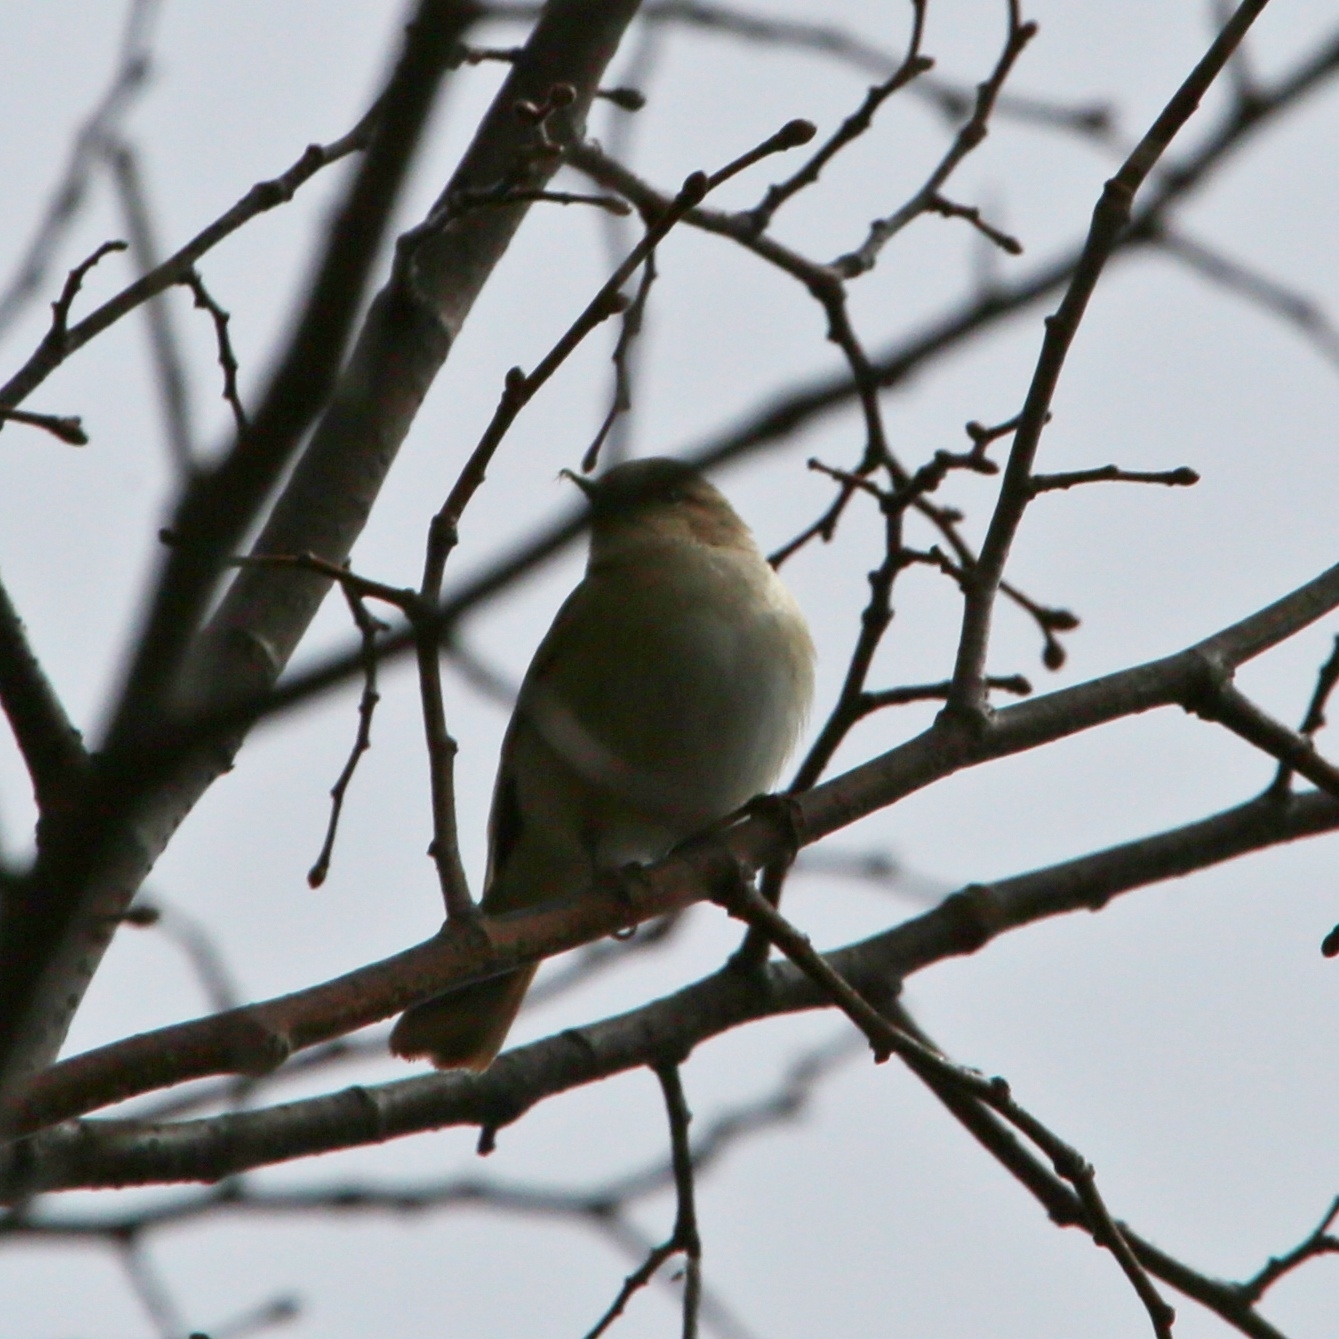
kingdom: Animalia
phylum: Chordata
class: Aves
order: Passeriformes
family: Phylloscopidae
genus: Phylloscopus
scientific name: Phylloscopus collybita
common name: Common chiffchaff
